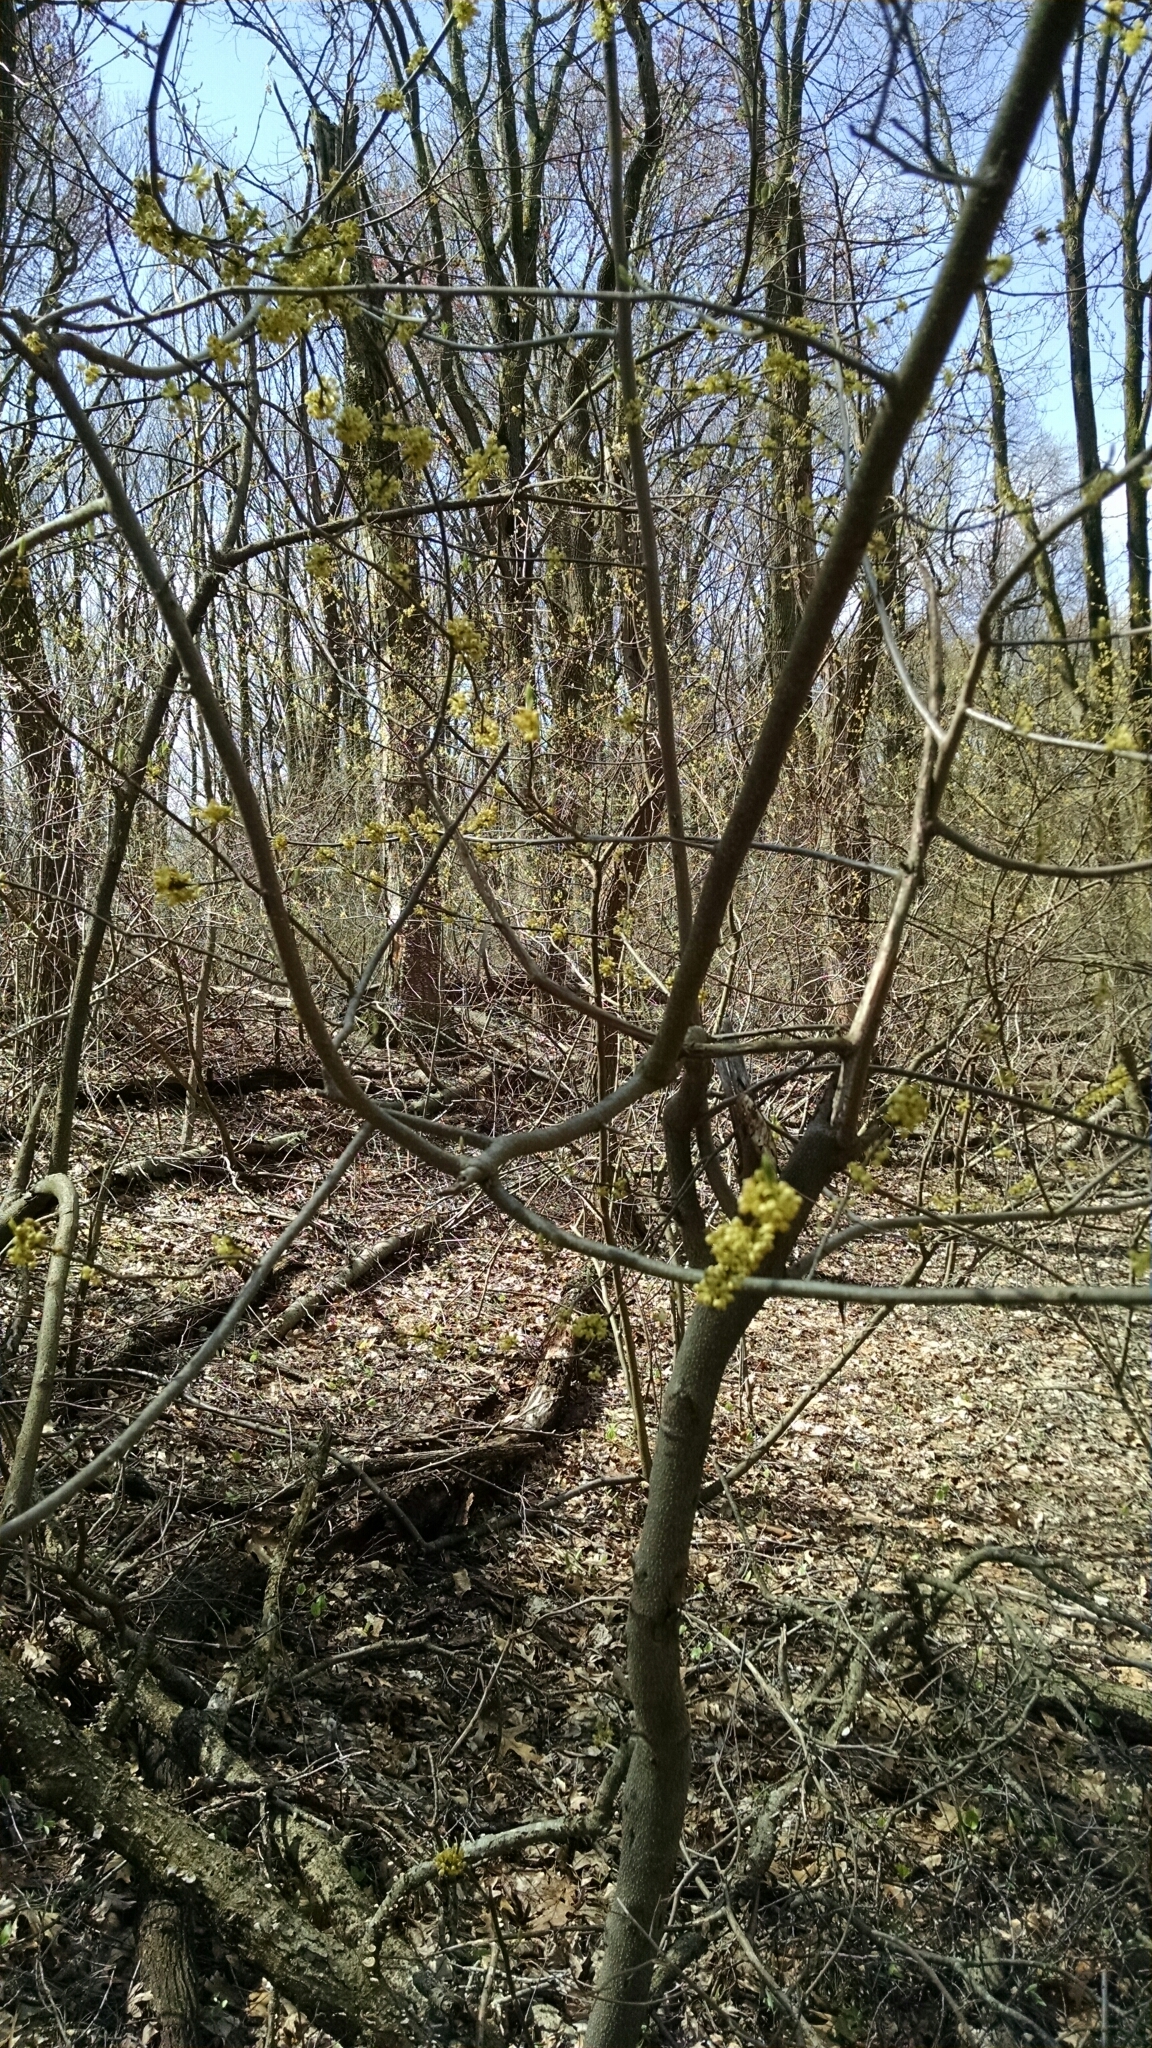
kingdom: Plantae
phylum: Tracheophyta
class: Magnoliopsida
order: Laurales
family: Lauraceae
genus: Lindera
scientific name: Lindera benzoin
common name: Spicebush
